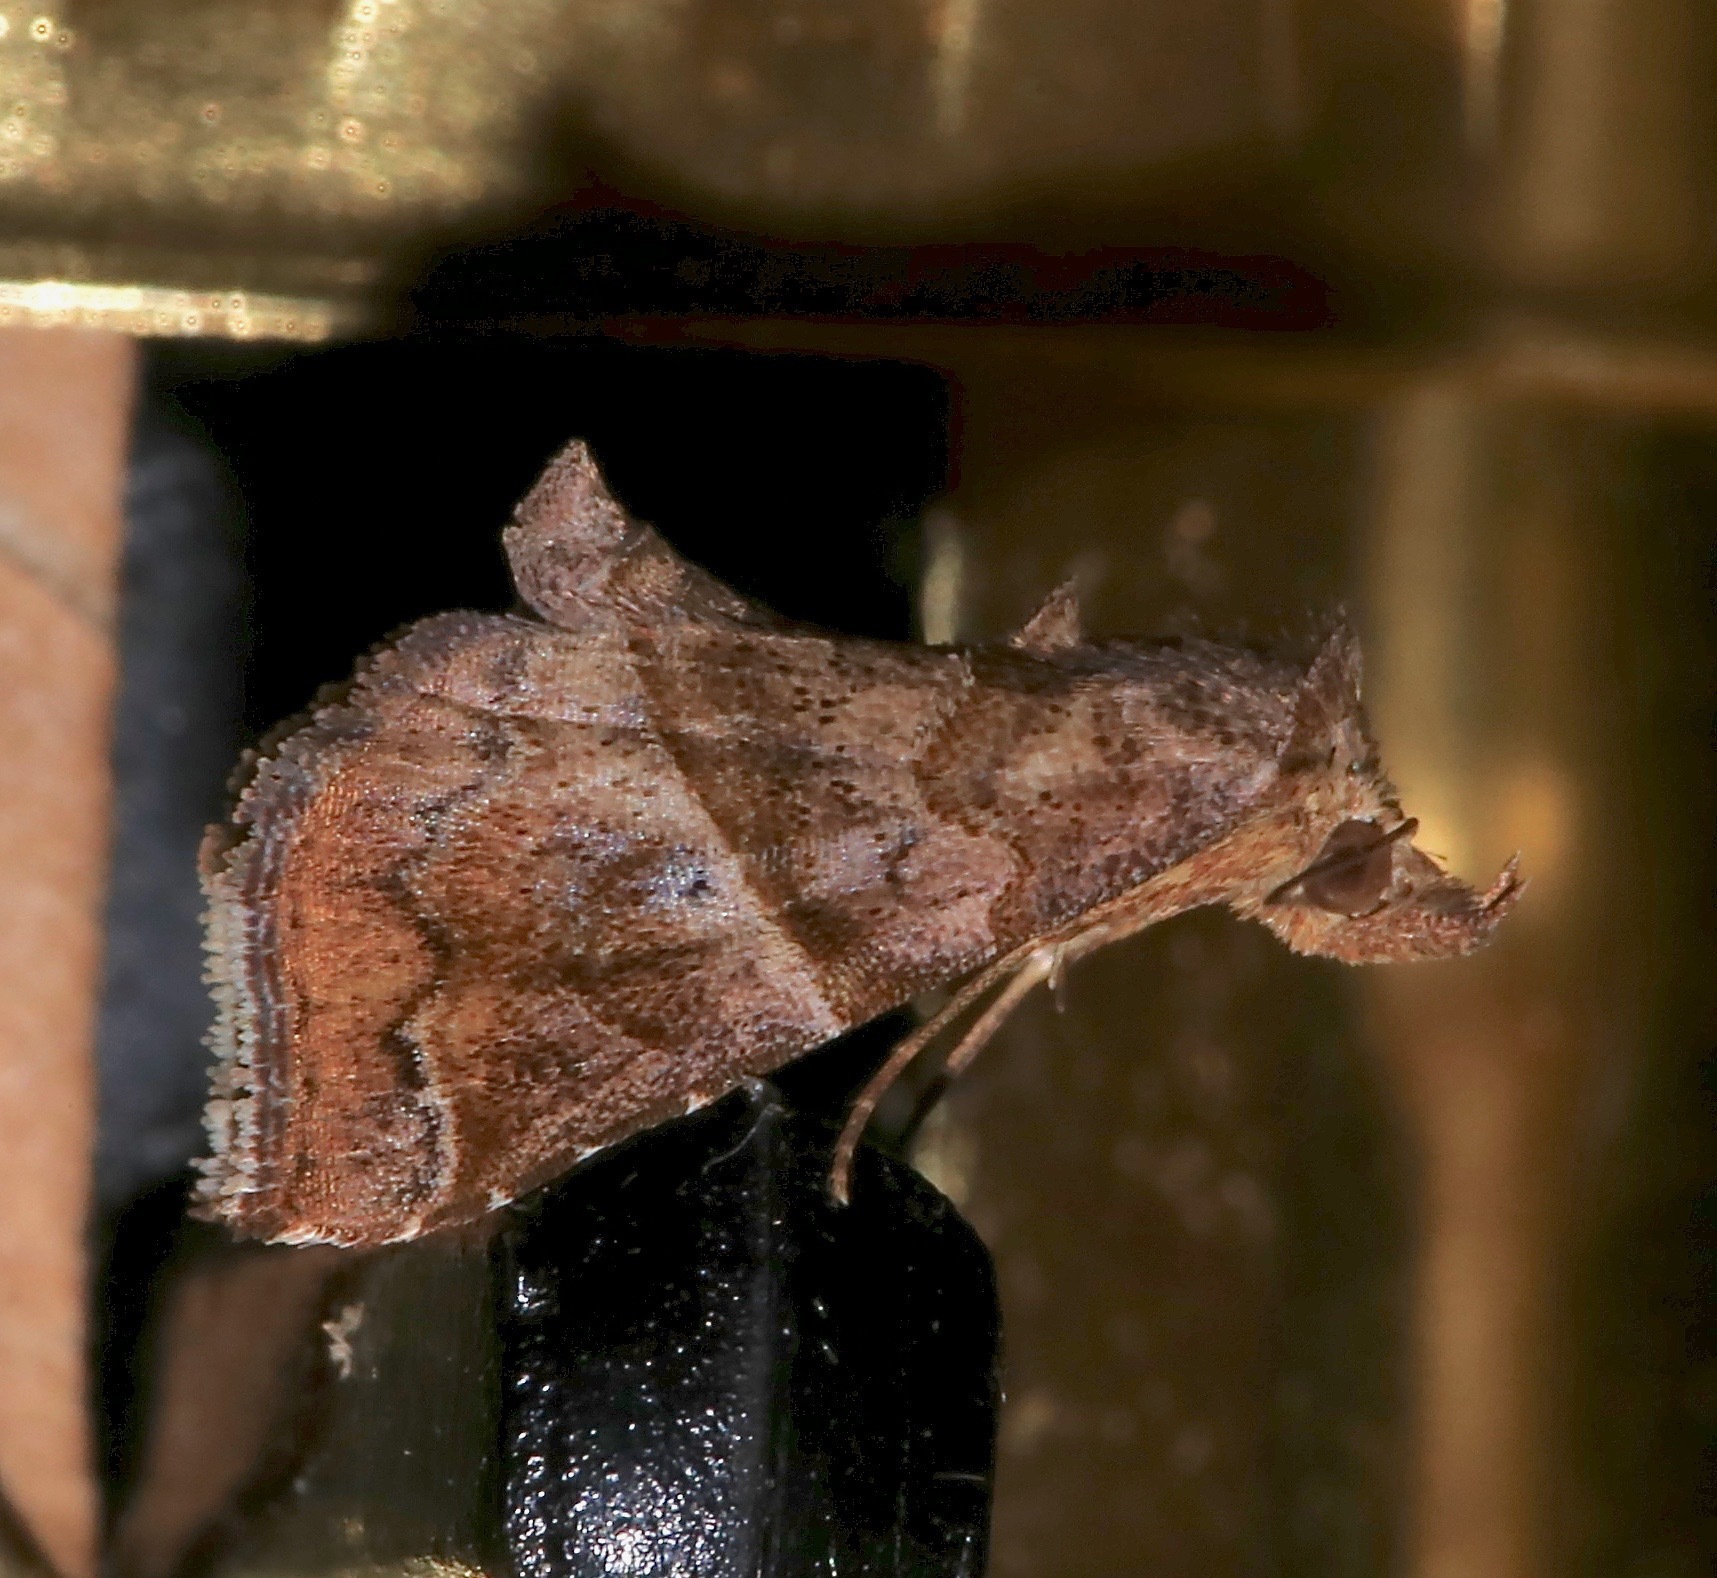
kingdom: Animalia
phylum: Arthropoda
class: Insecta
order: Lepidoptera
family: Erebidae
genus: Cecharismena
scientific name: Cecharismena jalapena
